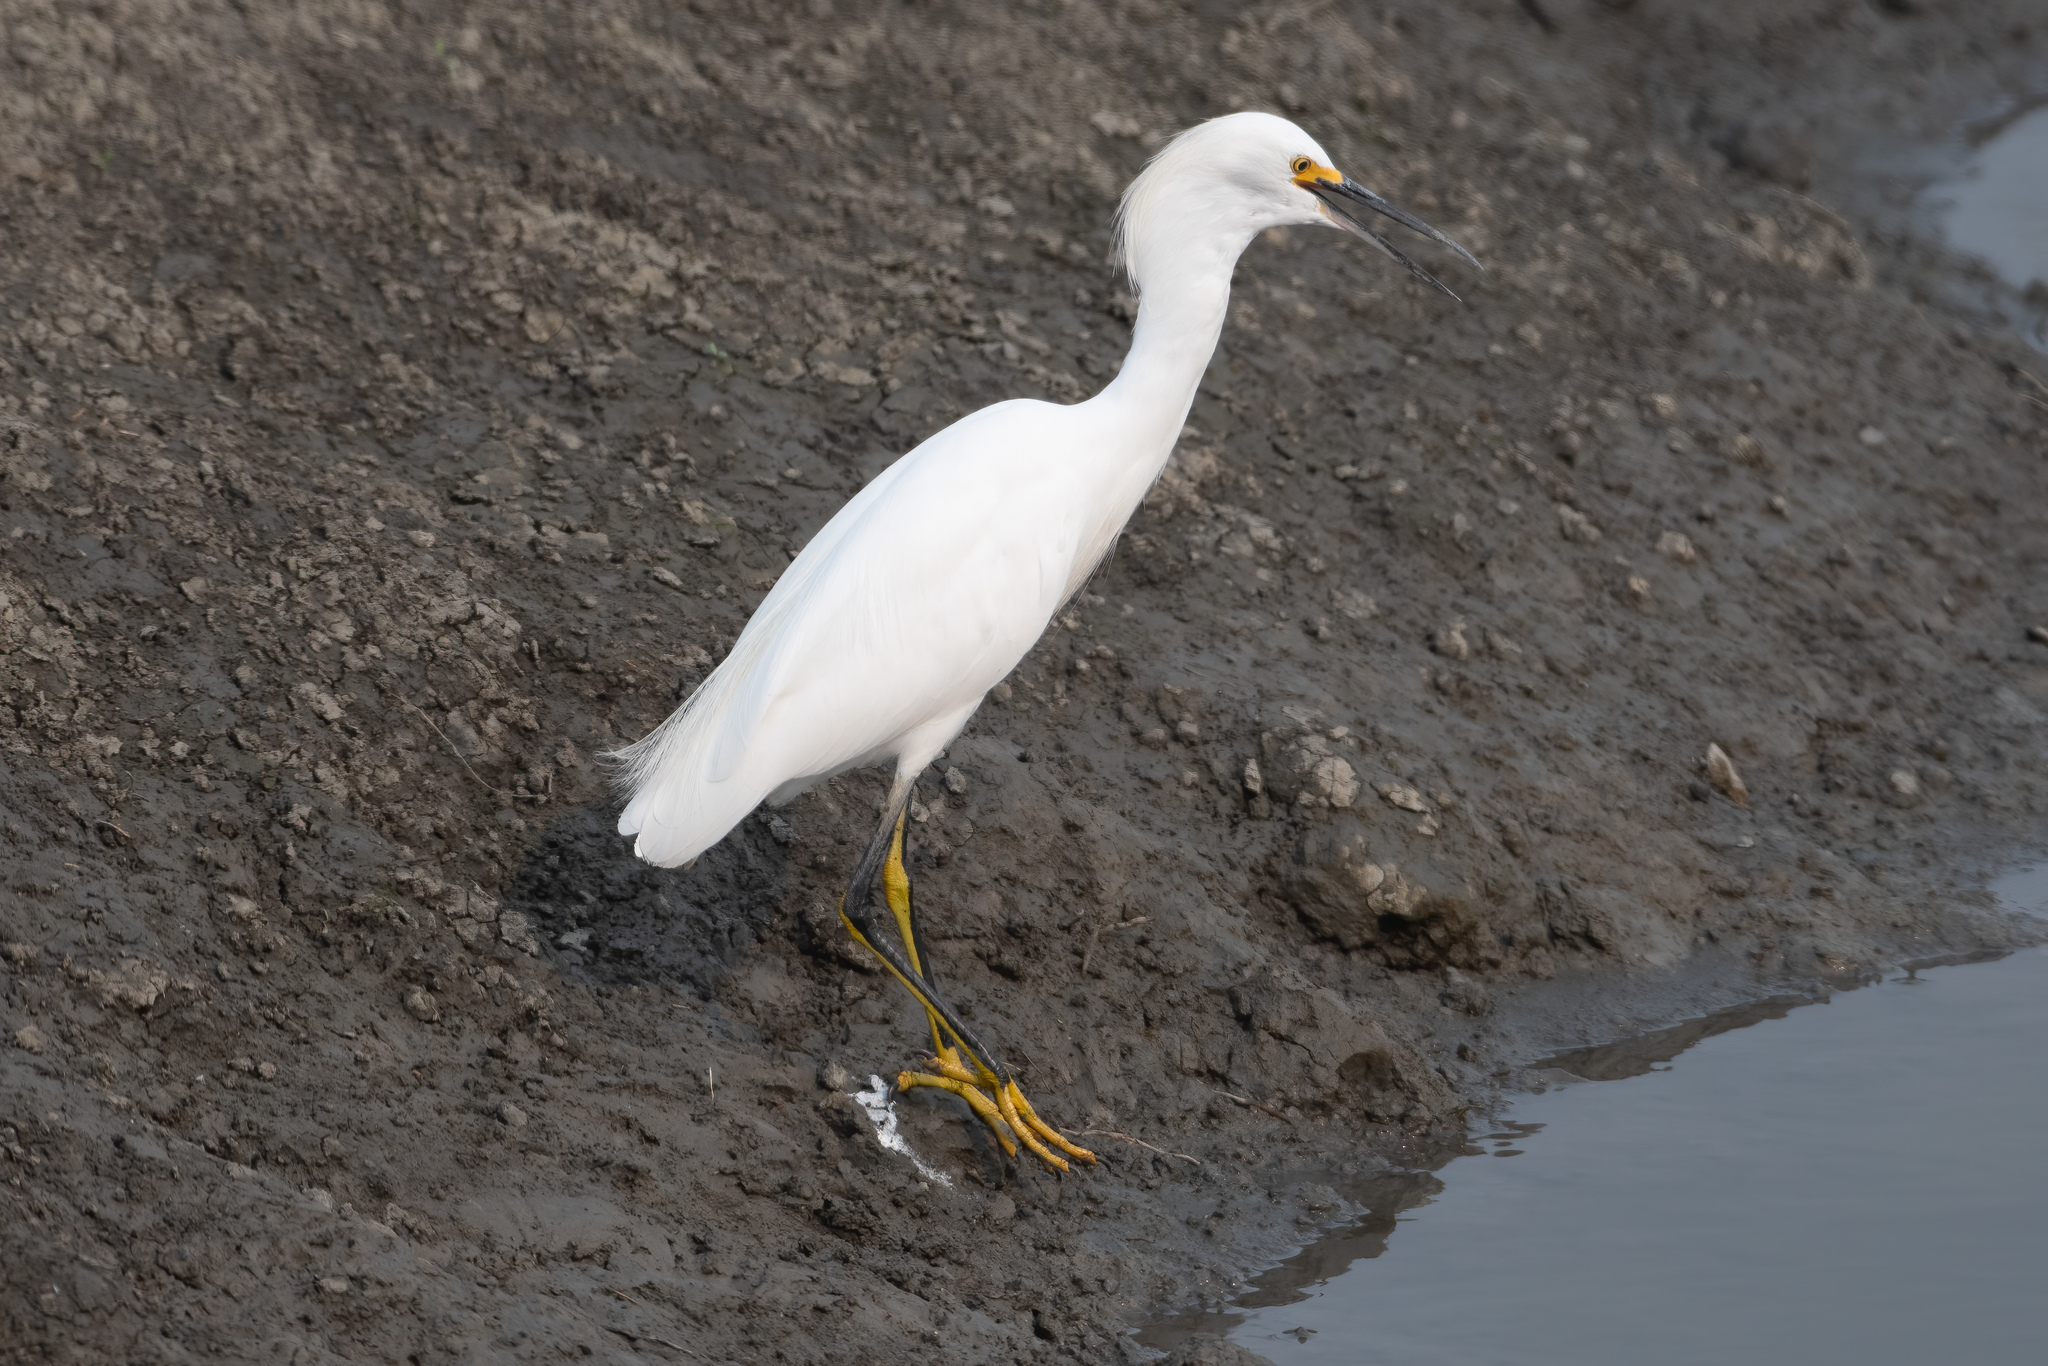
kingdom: Animalia
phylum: Chordata
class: Aves
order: Pelecaniformes
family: Ardeidae
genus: Egretta
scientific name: Egretta thula
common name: Snowy egret
